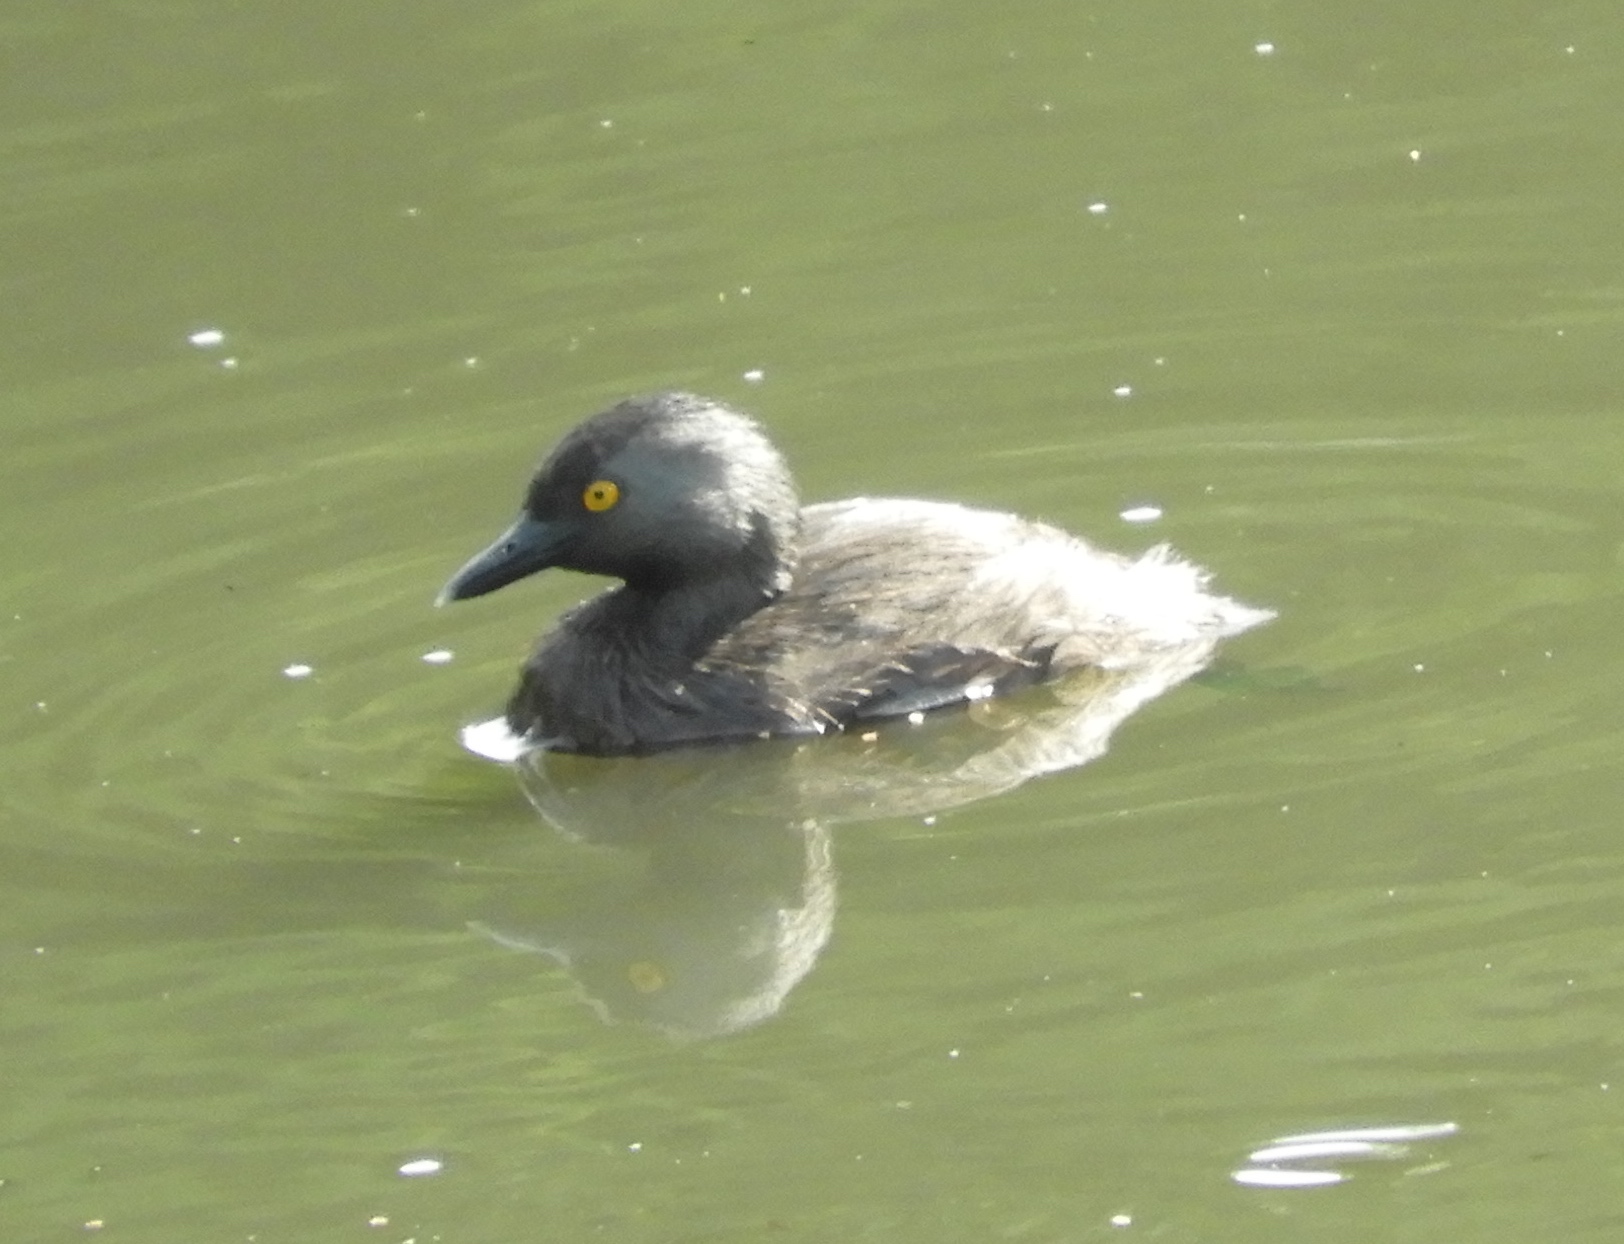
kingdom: Animalia
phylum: Chordata
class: Aves
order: Podicipediformes
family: Podicipedidae
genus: Tachybaptus
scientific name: Tachybaptus dominicus
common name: Least grebe
